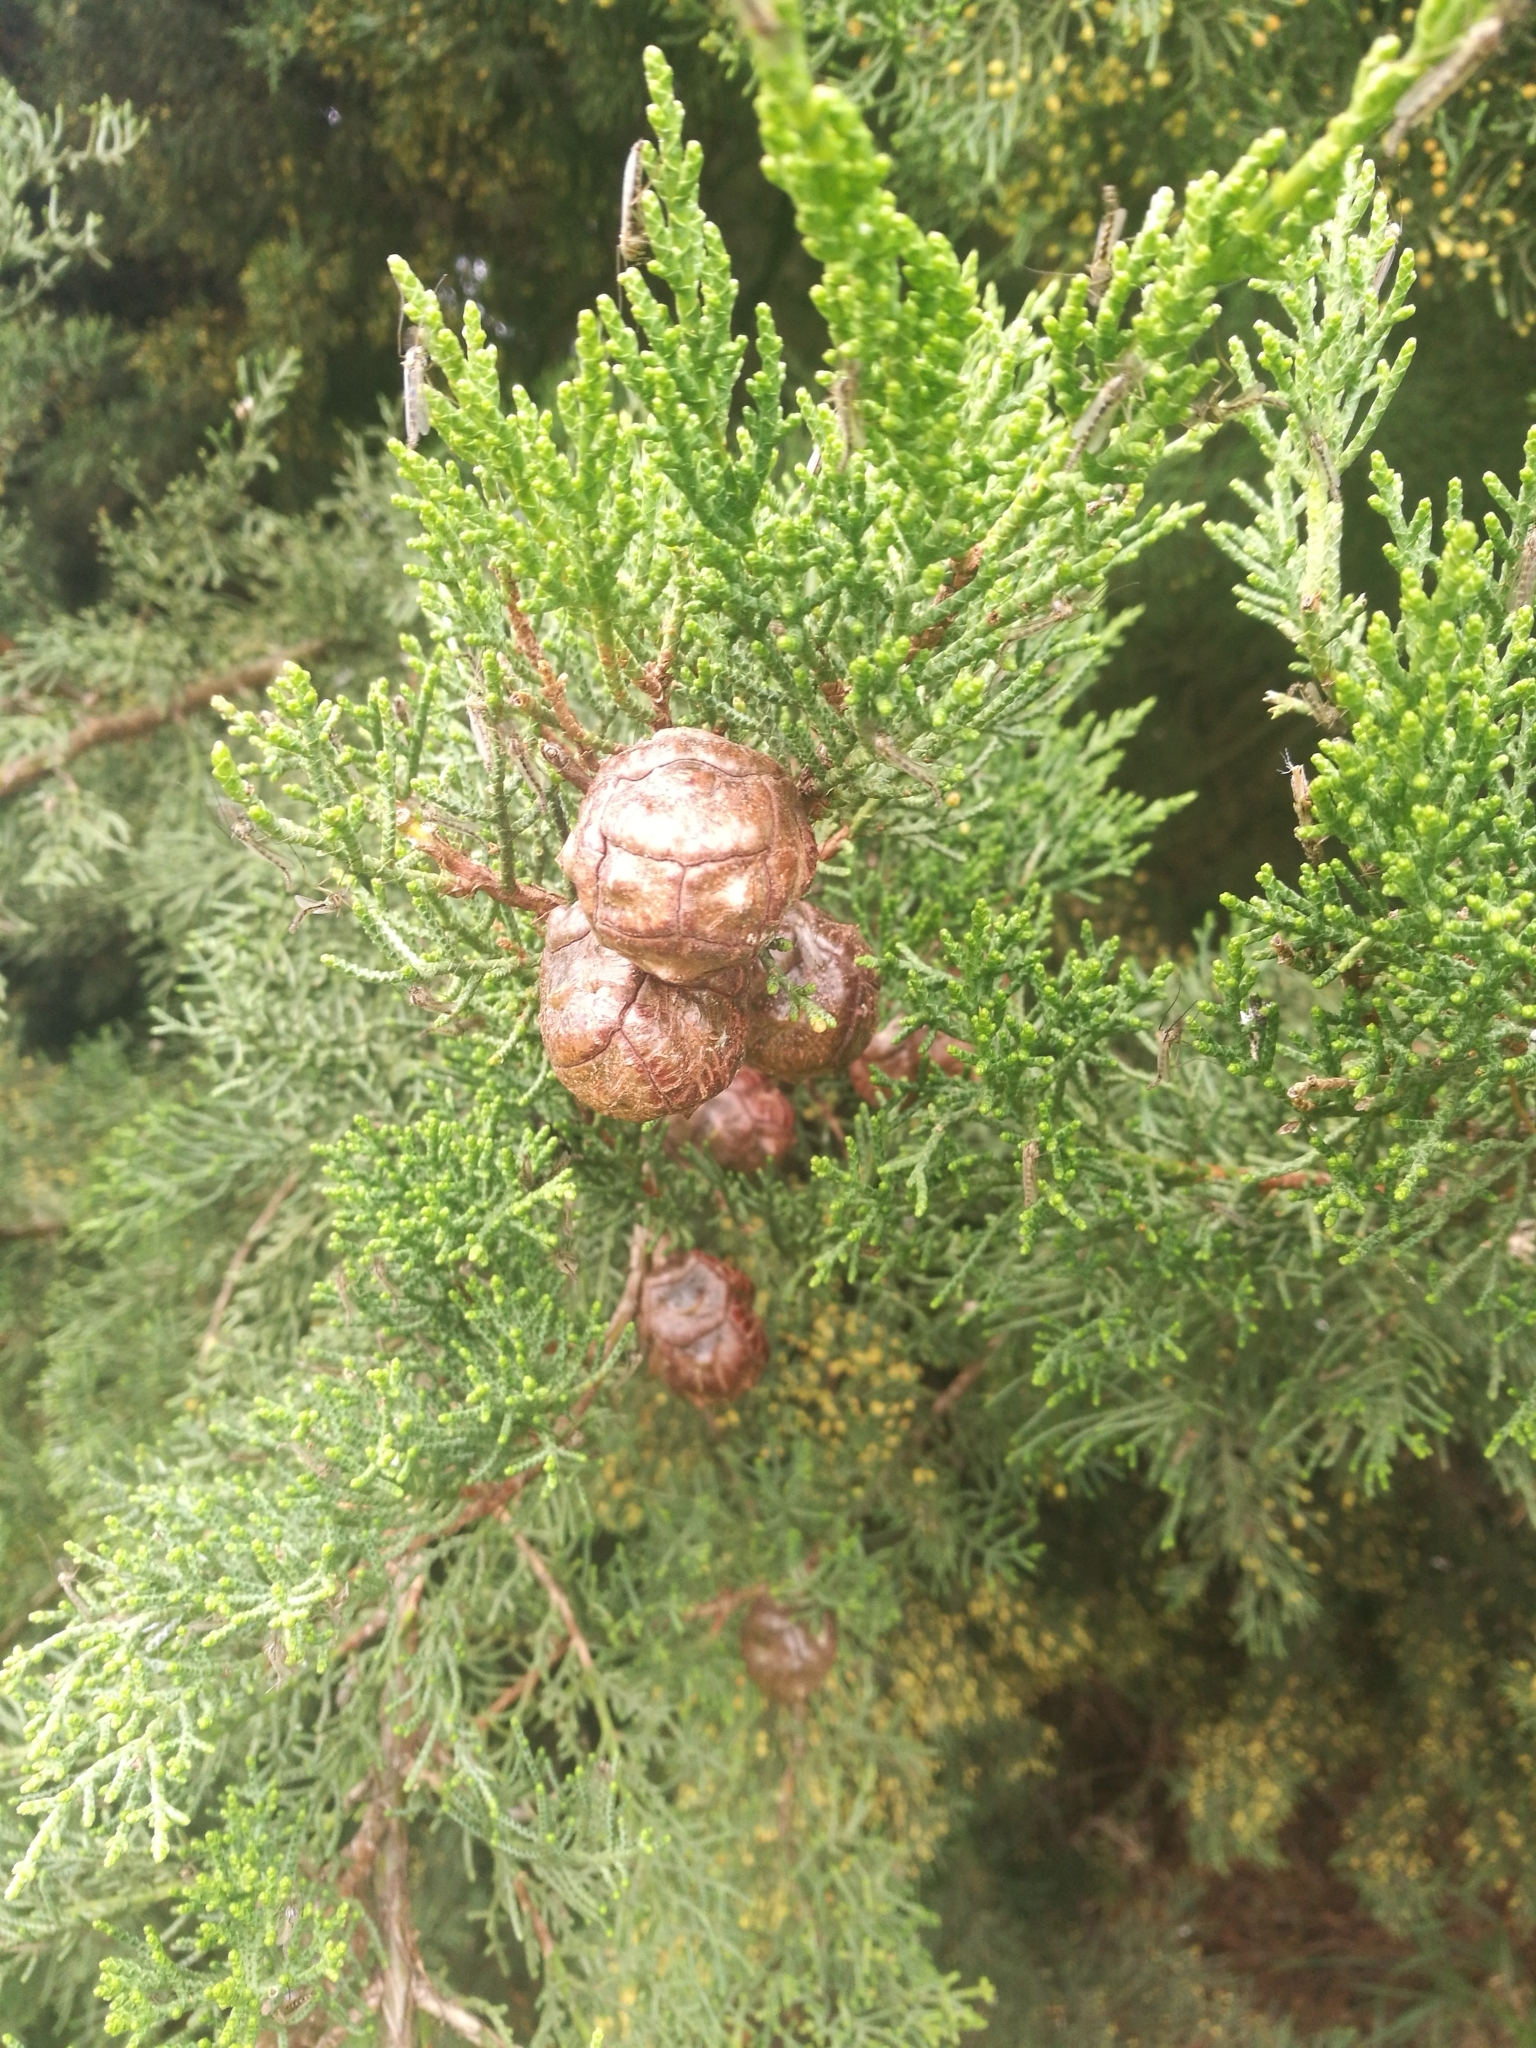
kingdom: Plantae
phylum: Tracheophyta
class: Pinopsida
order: Pinales
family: Cupressaceae
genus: Cupressus
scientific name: Cupressus macrocarpa
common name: Monterey cypress
